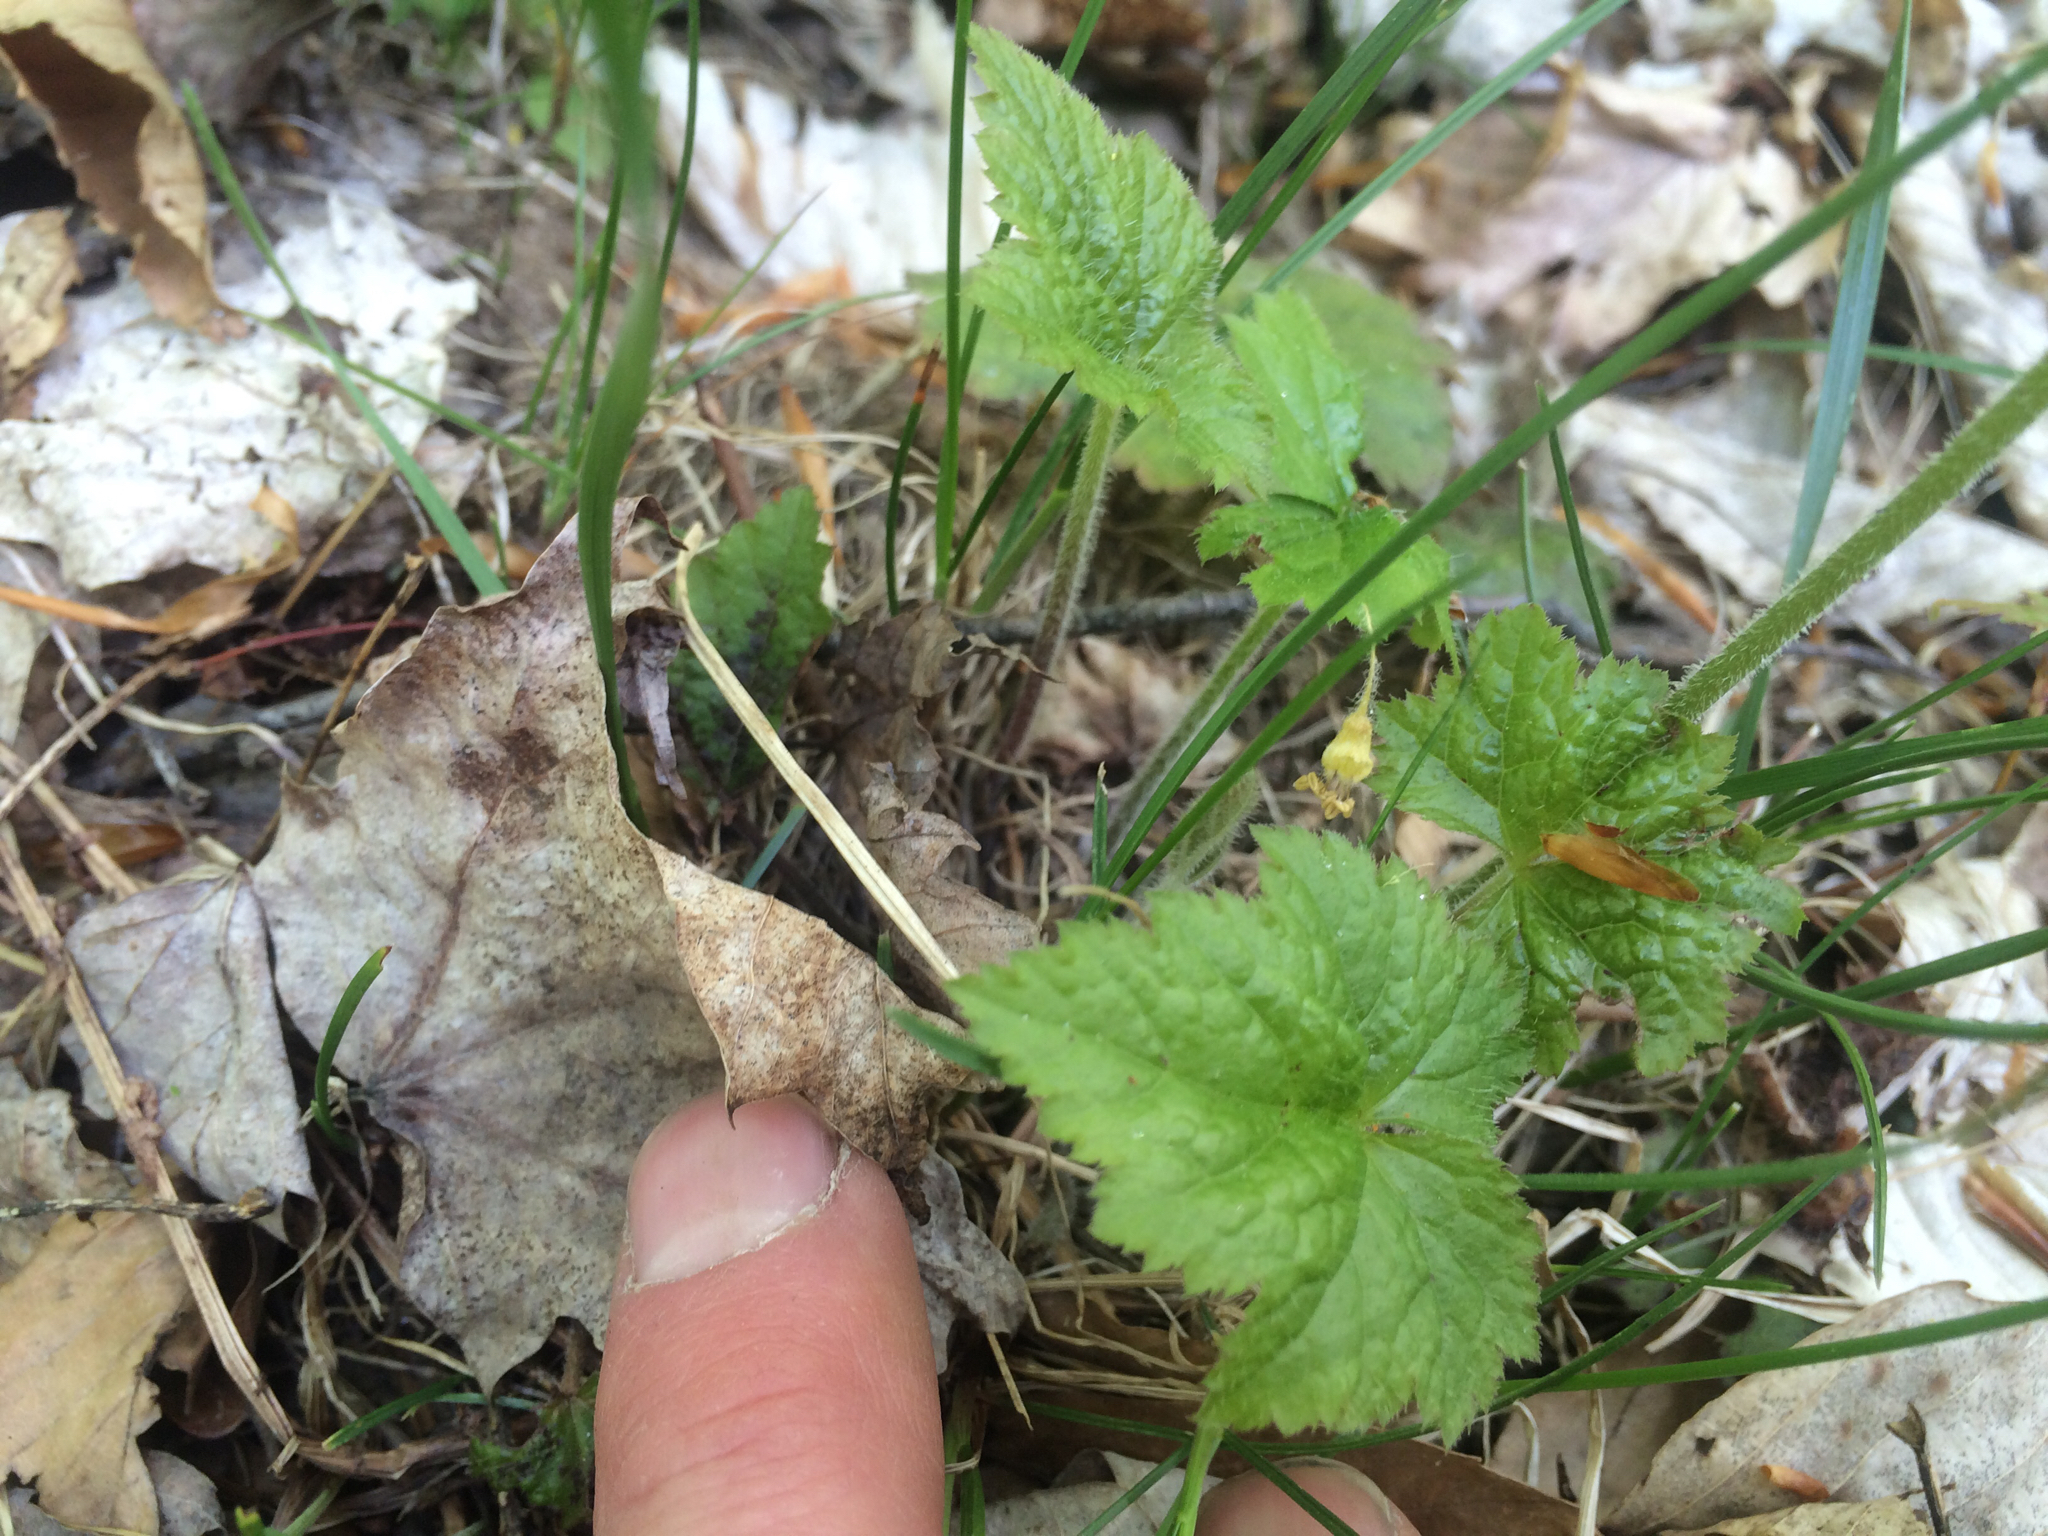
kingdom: Plantae
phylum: Tracheophyta
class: Magnoliopsida
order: Saxifragales
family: Saxifragaceae
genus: Tiarella
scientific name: Tiarella stolonifera
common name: Stoloniferous foamflower
